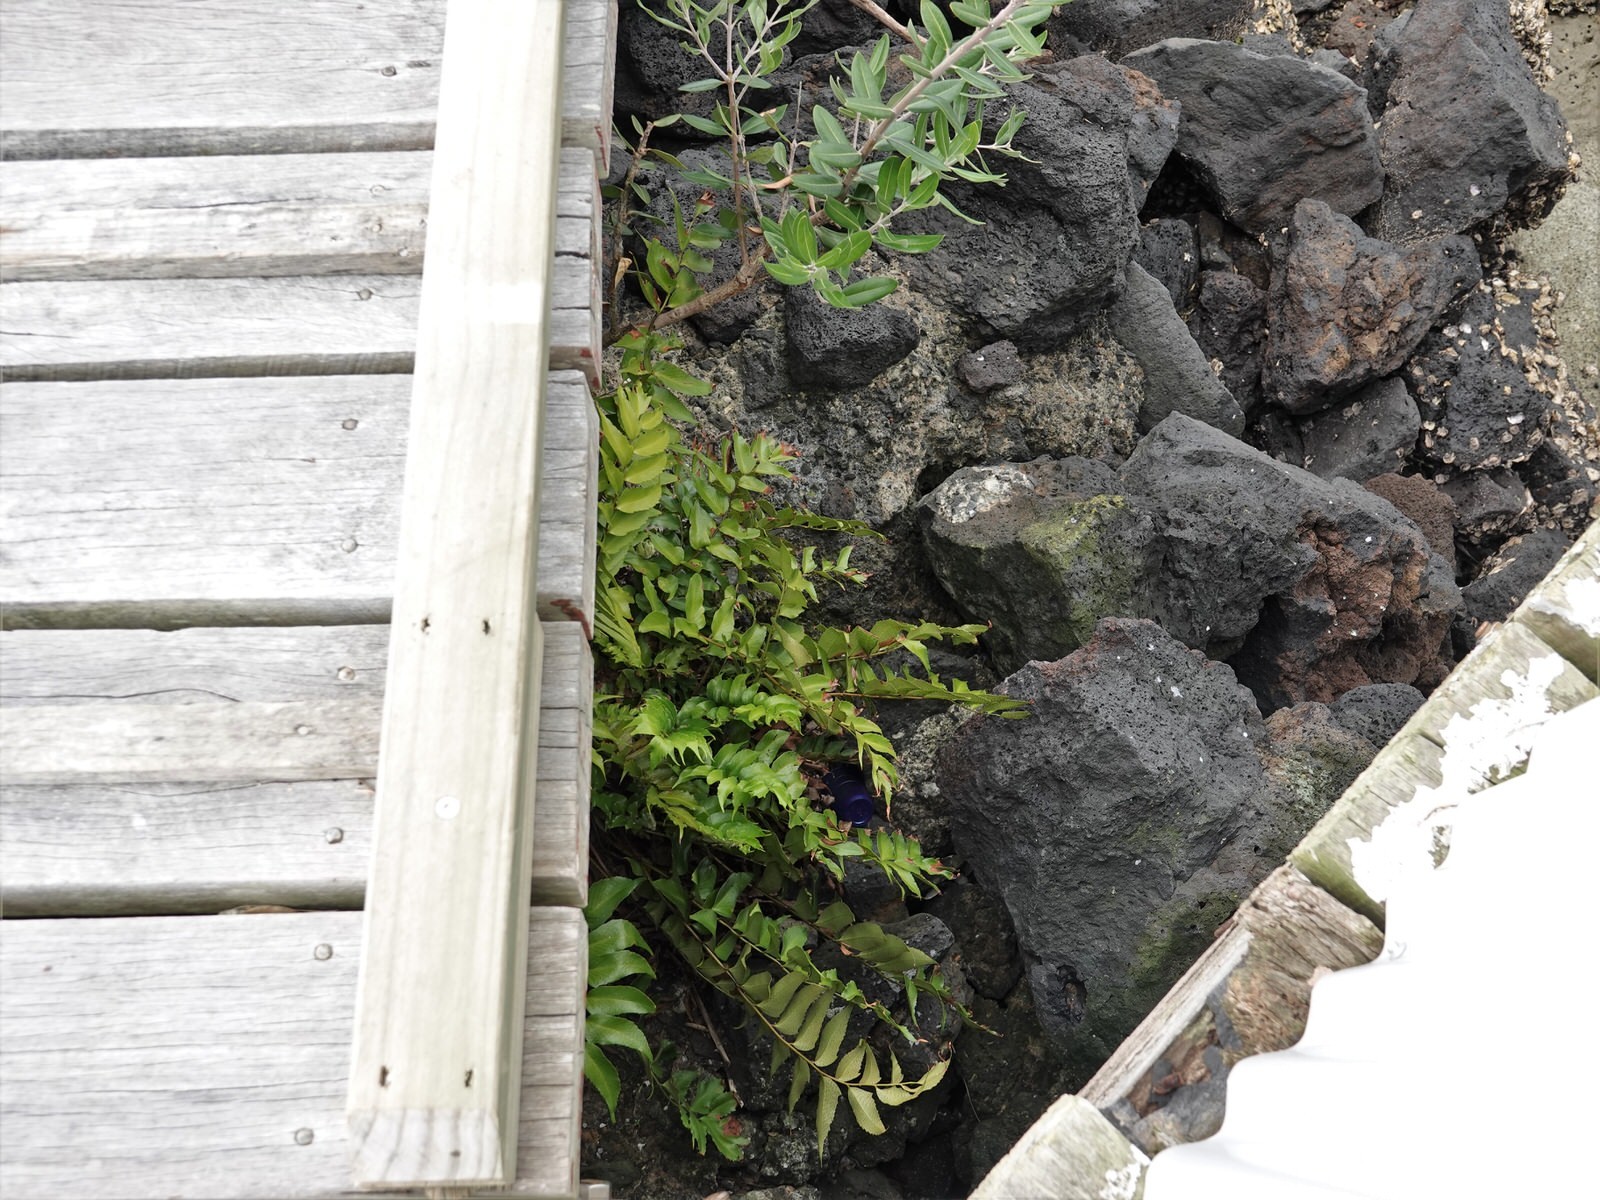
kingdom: Plantae
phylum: Tracheophyta
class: Polypodiopsida
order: Polypodiales
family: Dryopteridaceae
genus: Cyrtomium
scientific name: Cyrtomium falcatum
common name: House holly-fern
